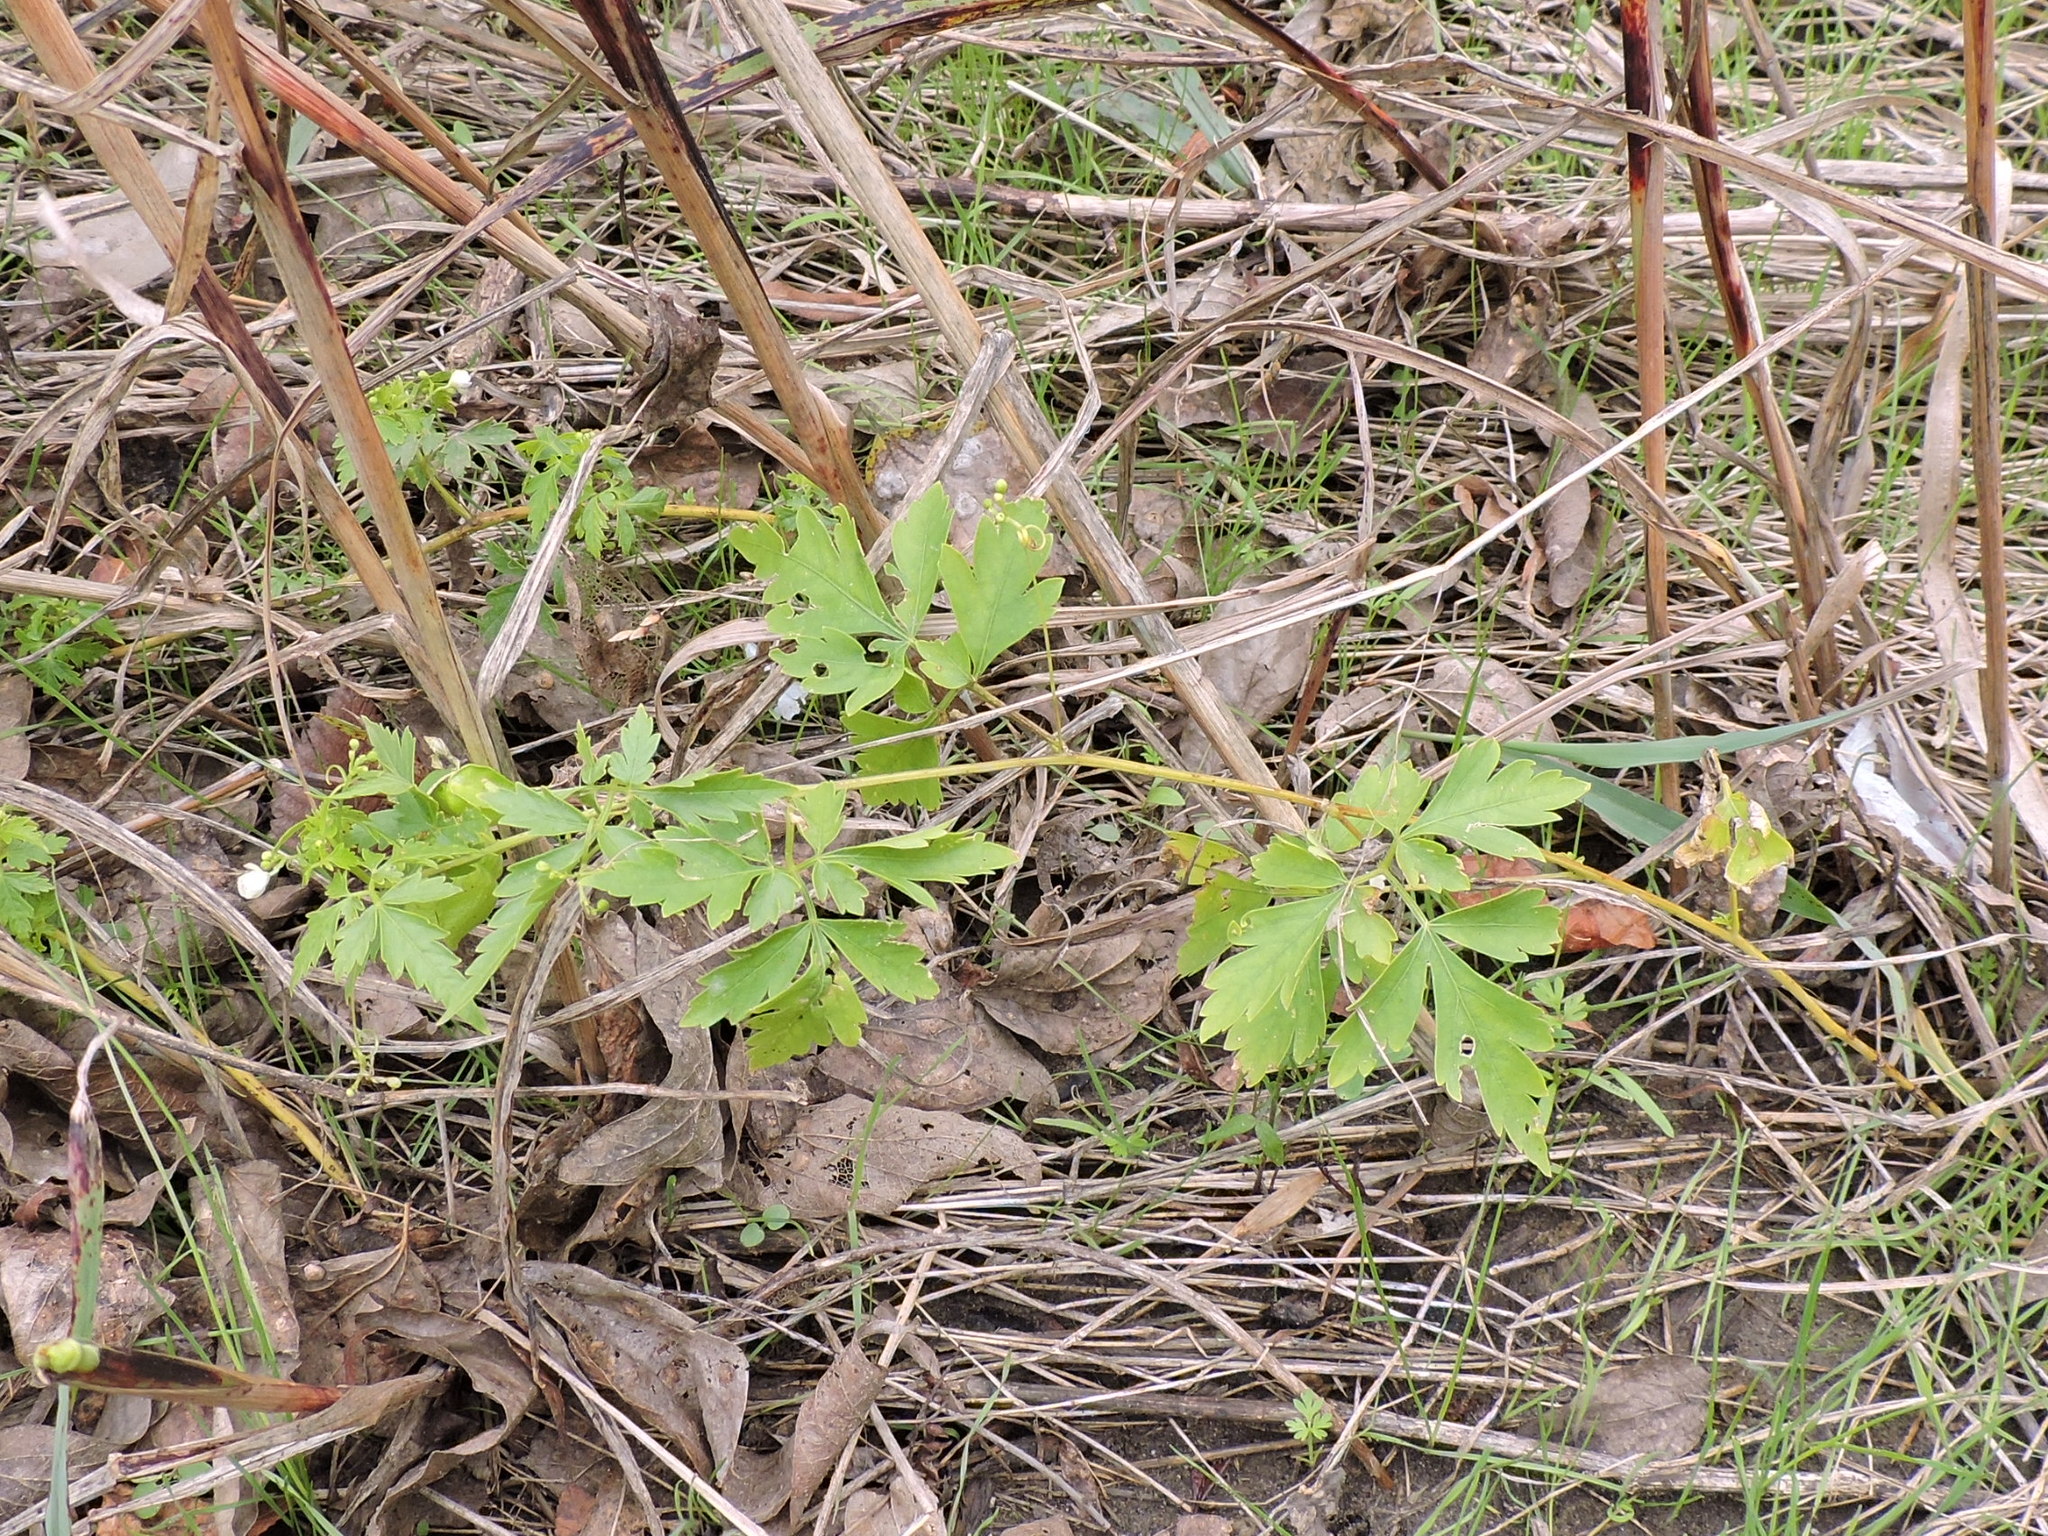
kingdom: Plantae
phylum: Tracheophyta
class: Magnoliopsida
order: Sapindales
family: Sapindaceae
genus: Cardiospermum
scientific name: Cardiospermum halicacabum
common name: Balloon vine
